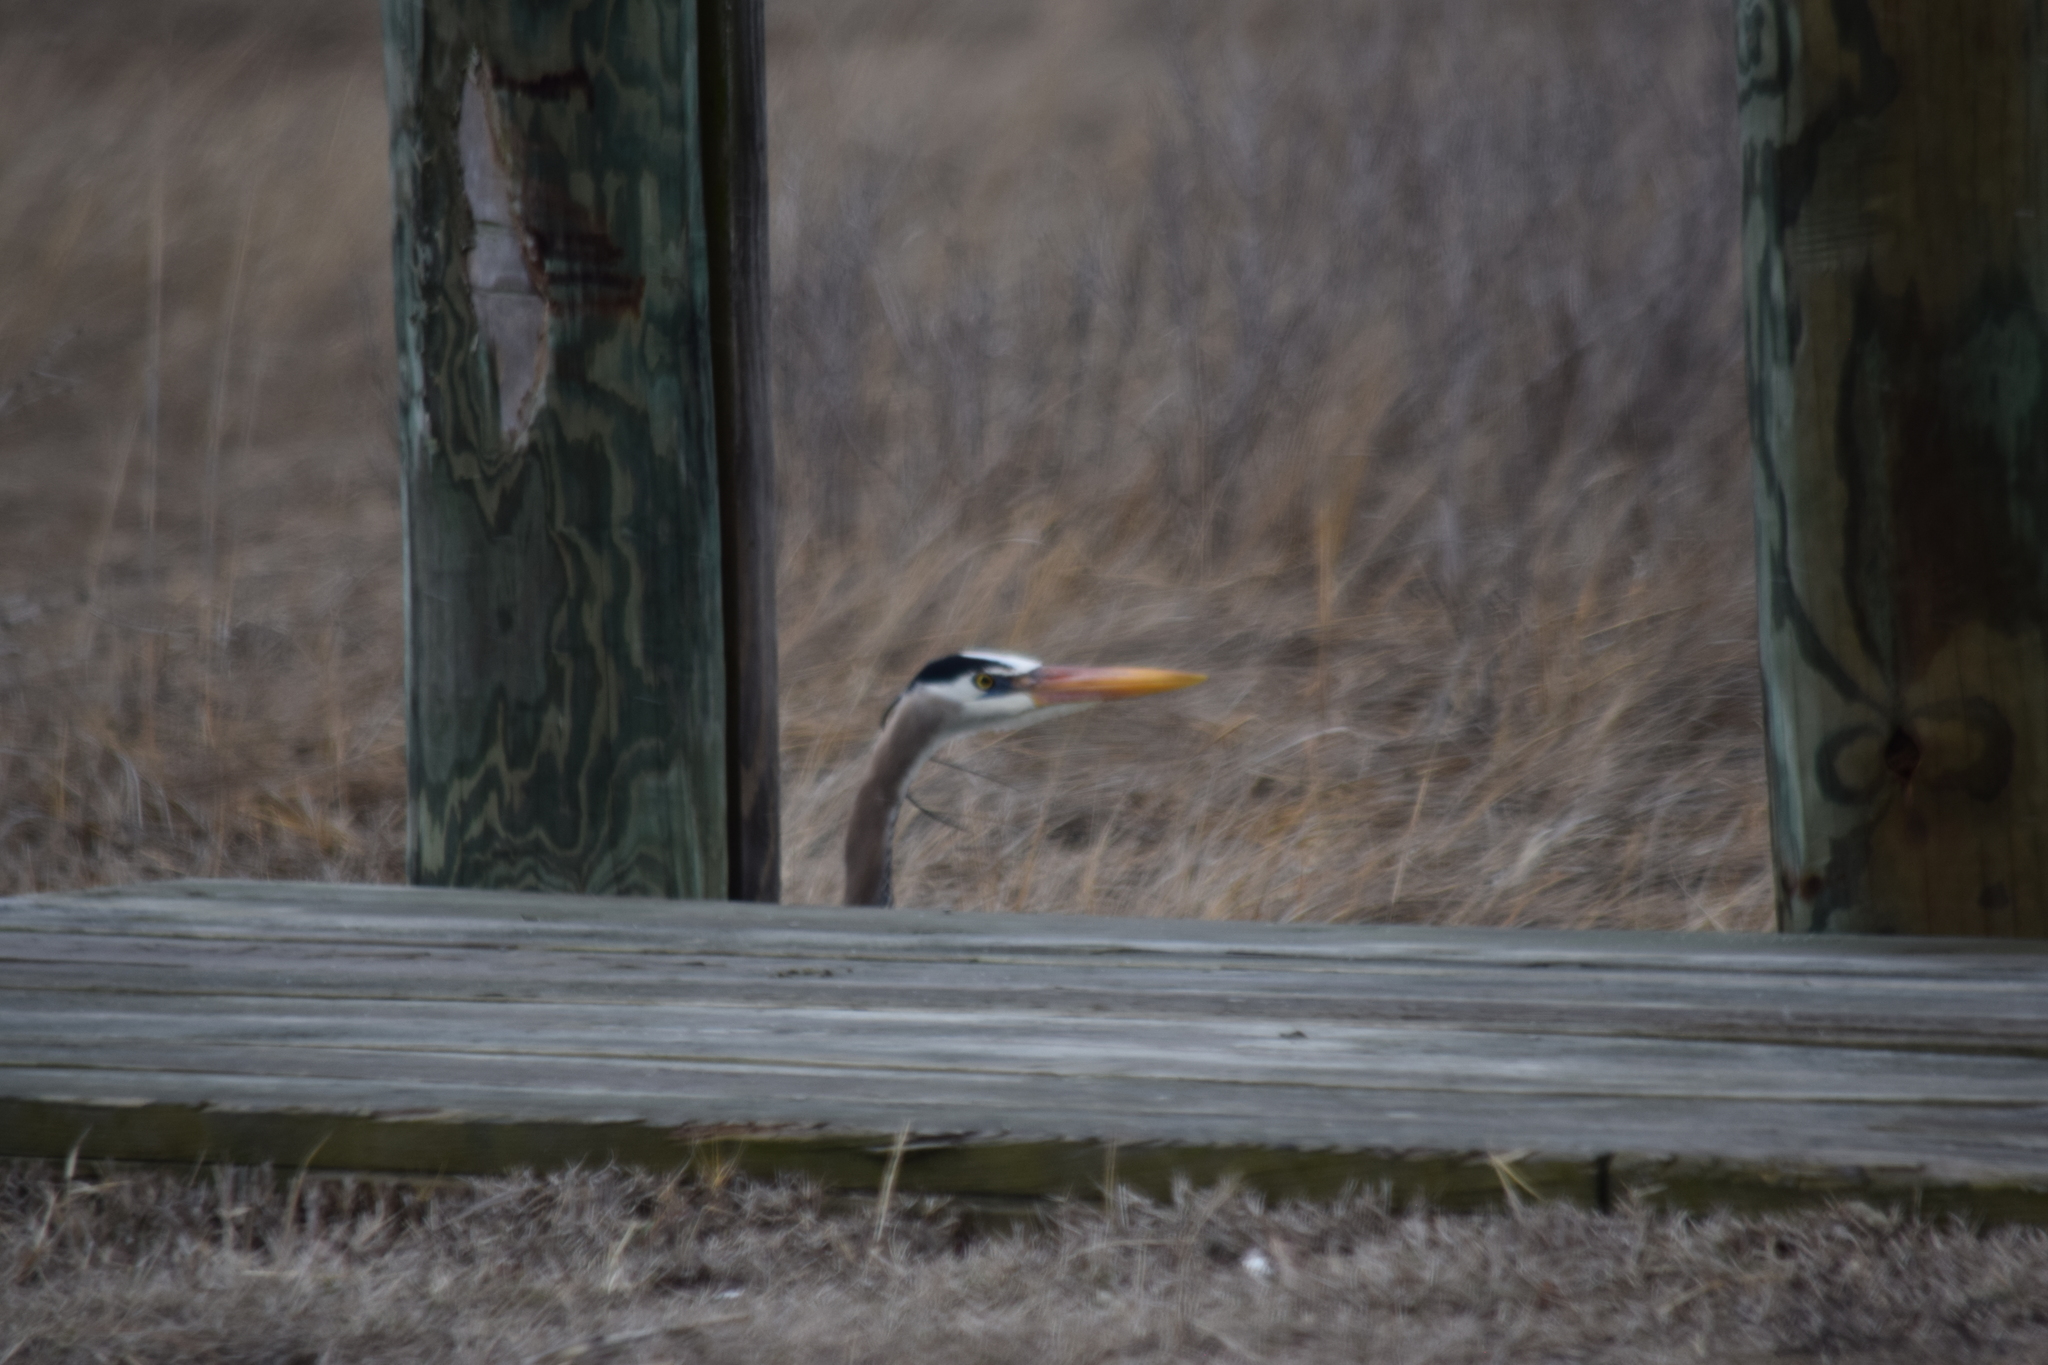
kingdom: Animalia
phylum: Chordata
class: Aves
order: Pelecaniformes
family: Ardeidae
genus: Ardea
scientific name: Ardea herodias
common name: Great blue heron
